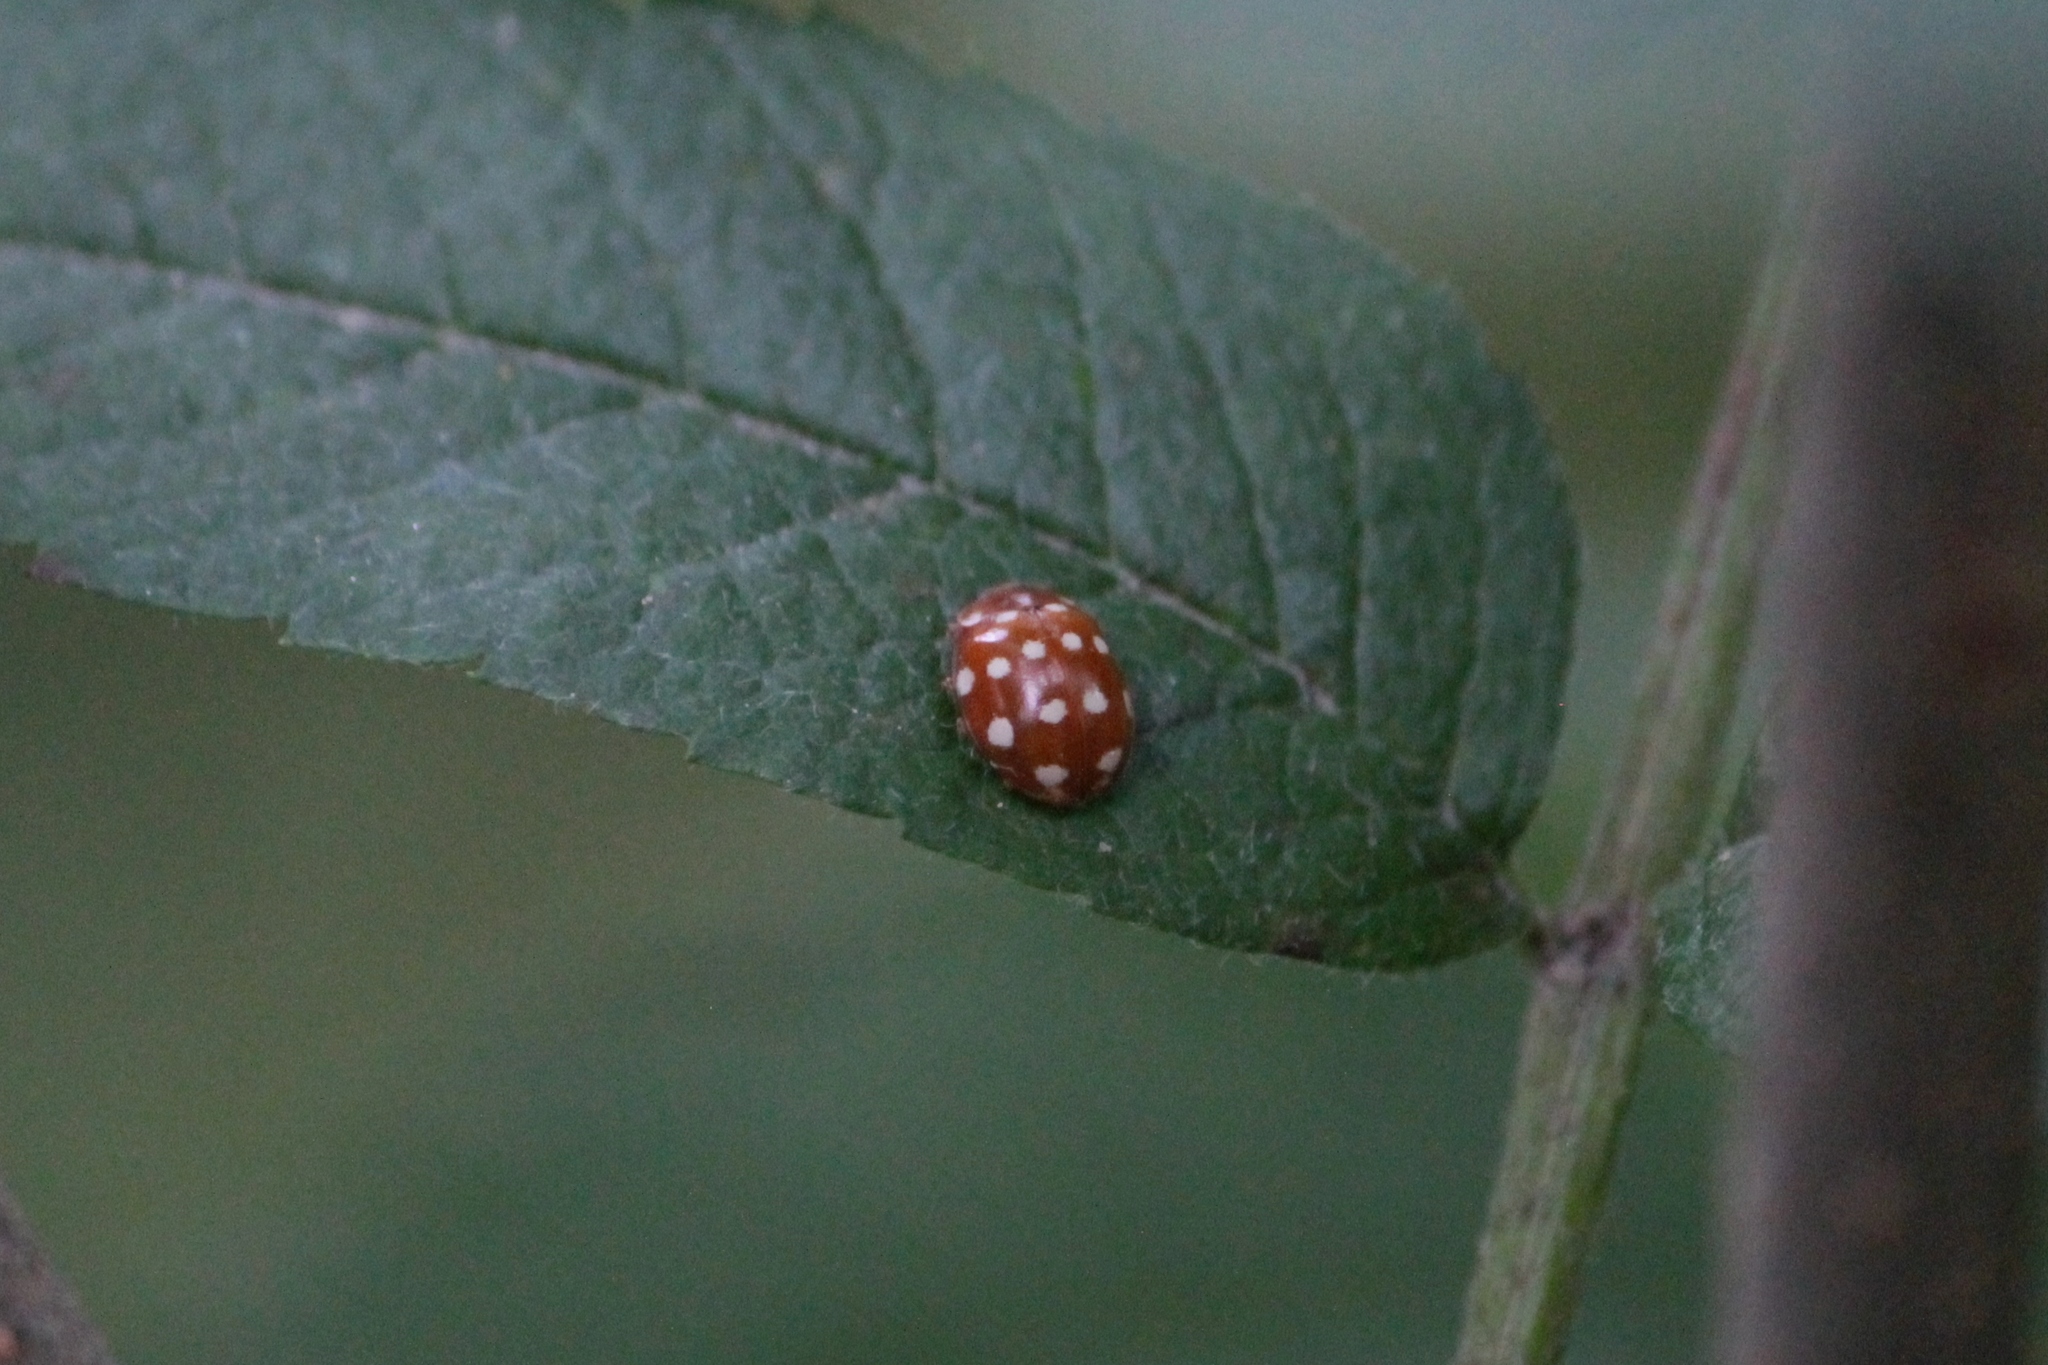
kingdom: Animalia
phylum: Arthropoda
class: Insecta
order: Coleoptera
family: Coccinellidae
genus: Calvia
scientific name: Calvia quatuordecimguttata
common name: Cream-spot ladybird
